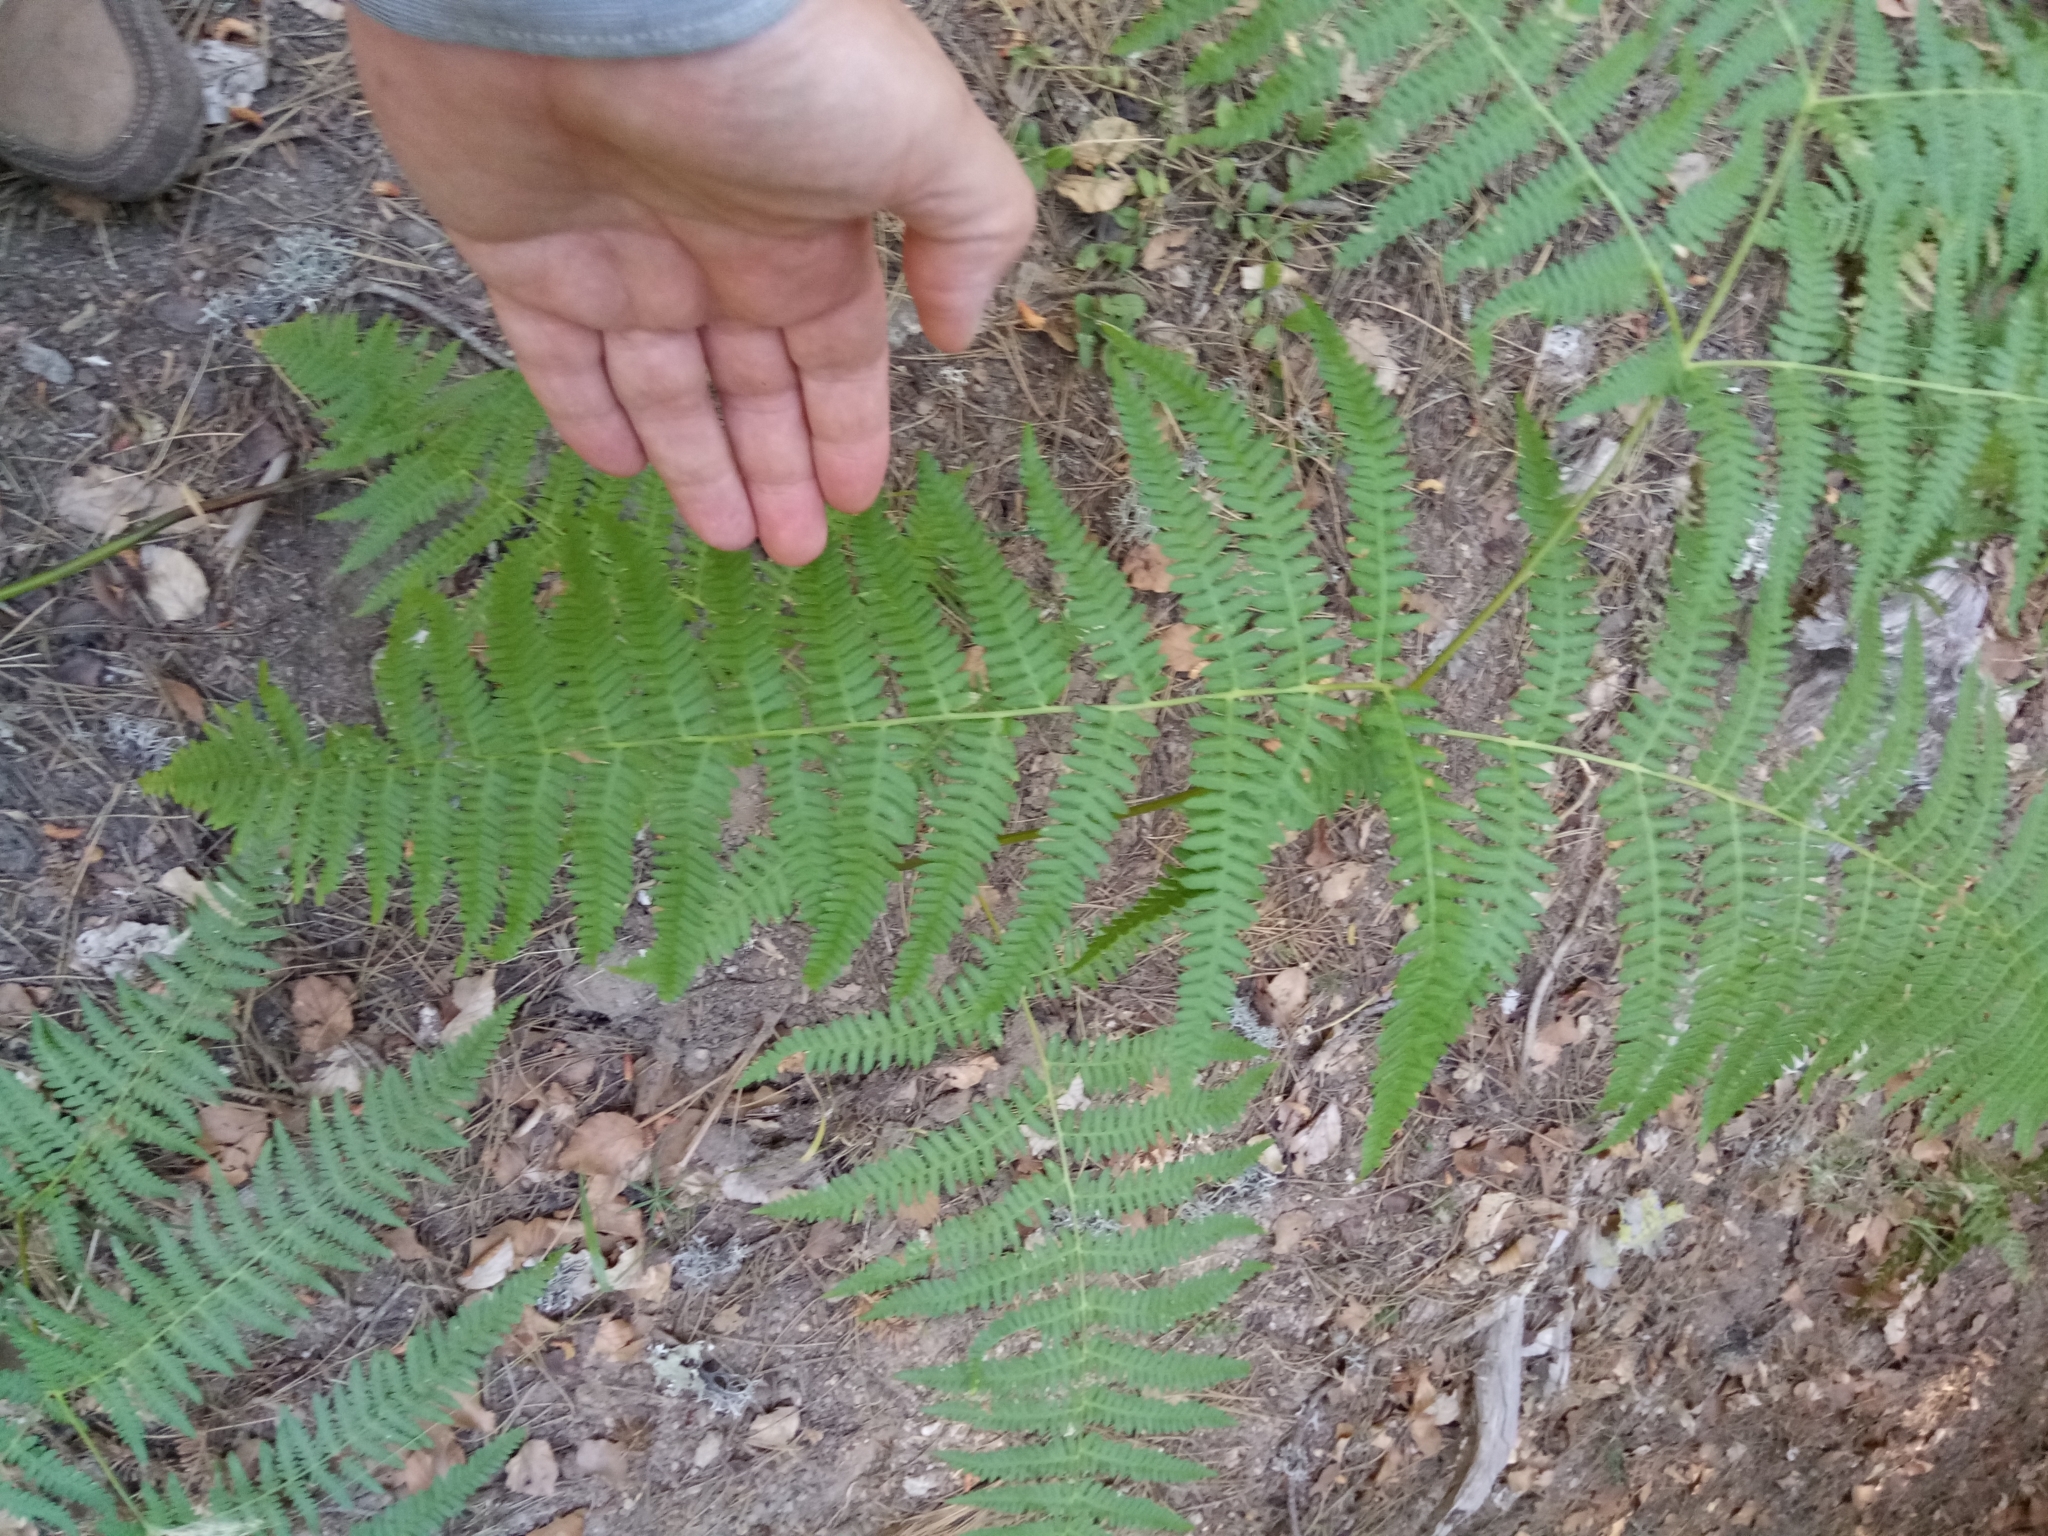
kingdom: Plantae
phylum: Tracheophyta
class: Polypodiopsida
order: Polypodiales
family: Dennstaedtiaceae
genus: Pteridium
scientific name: Pteridium aquilinum
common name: Bracken
